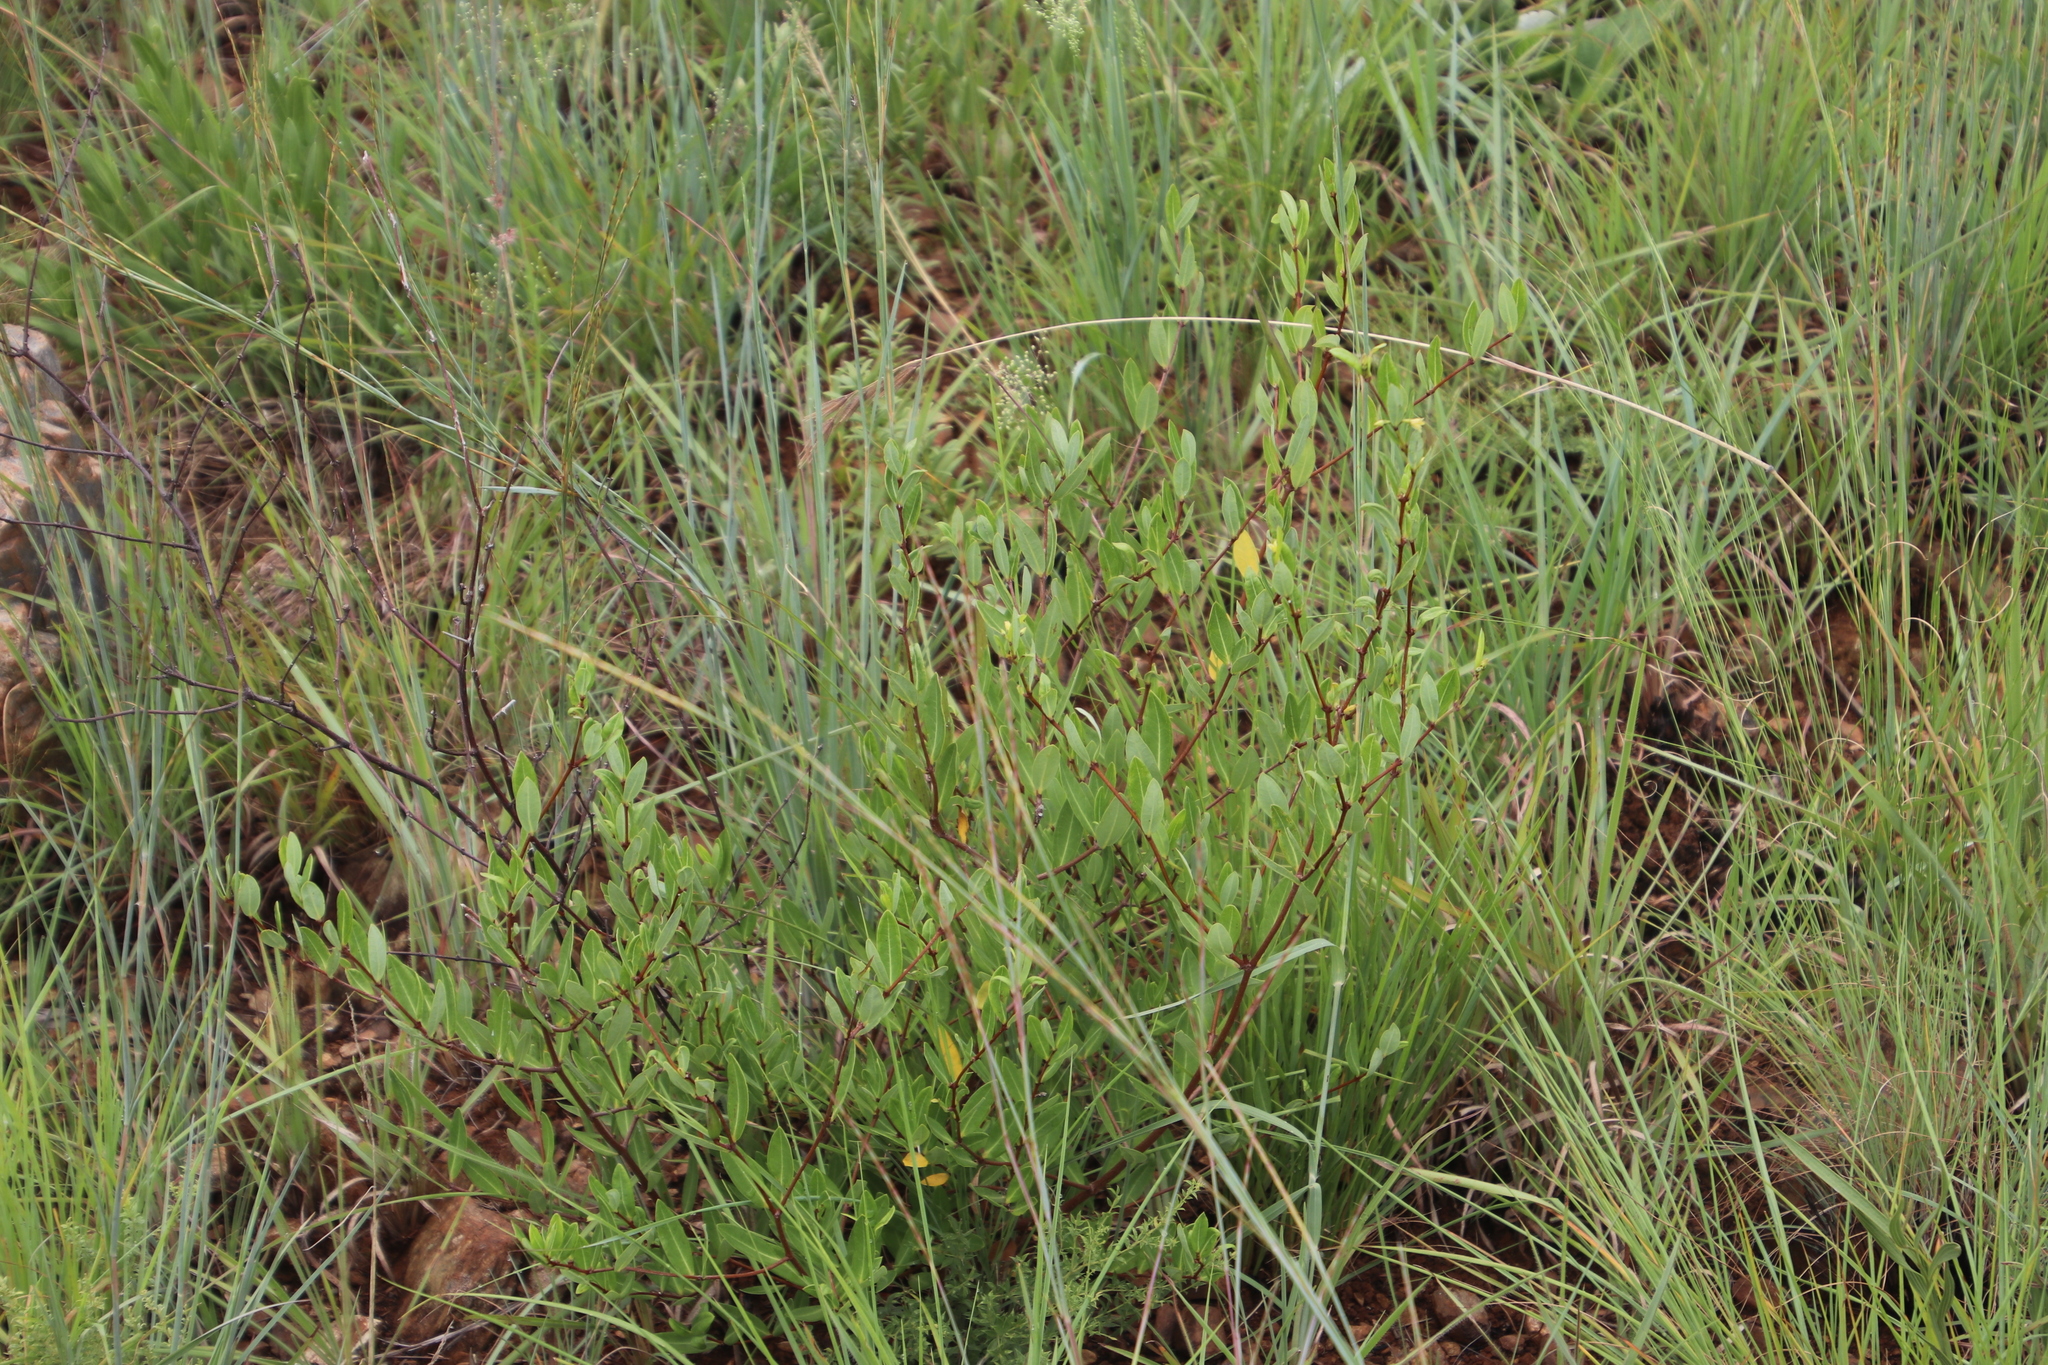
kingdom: Plantae
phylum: Tracheophyta
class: Magnoliopsida
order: Gentianales
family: Apocynaceae
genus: Cryptolepis
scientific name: Cryptolepis oblongifolia
